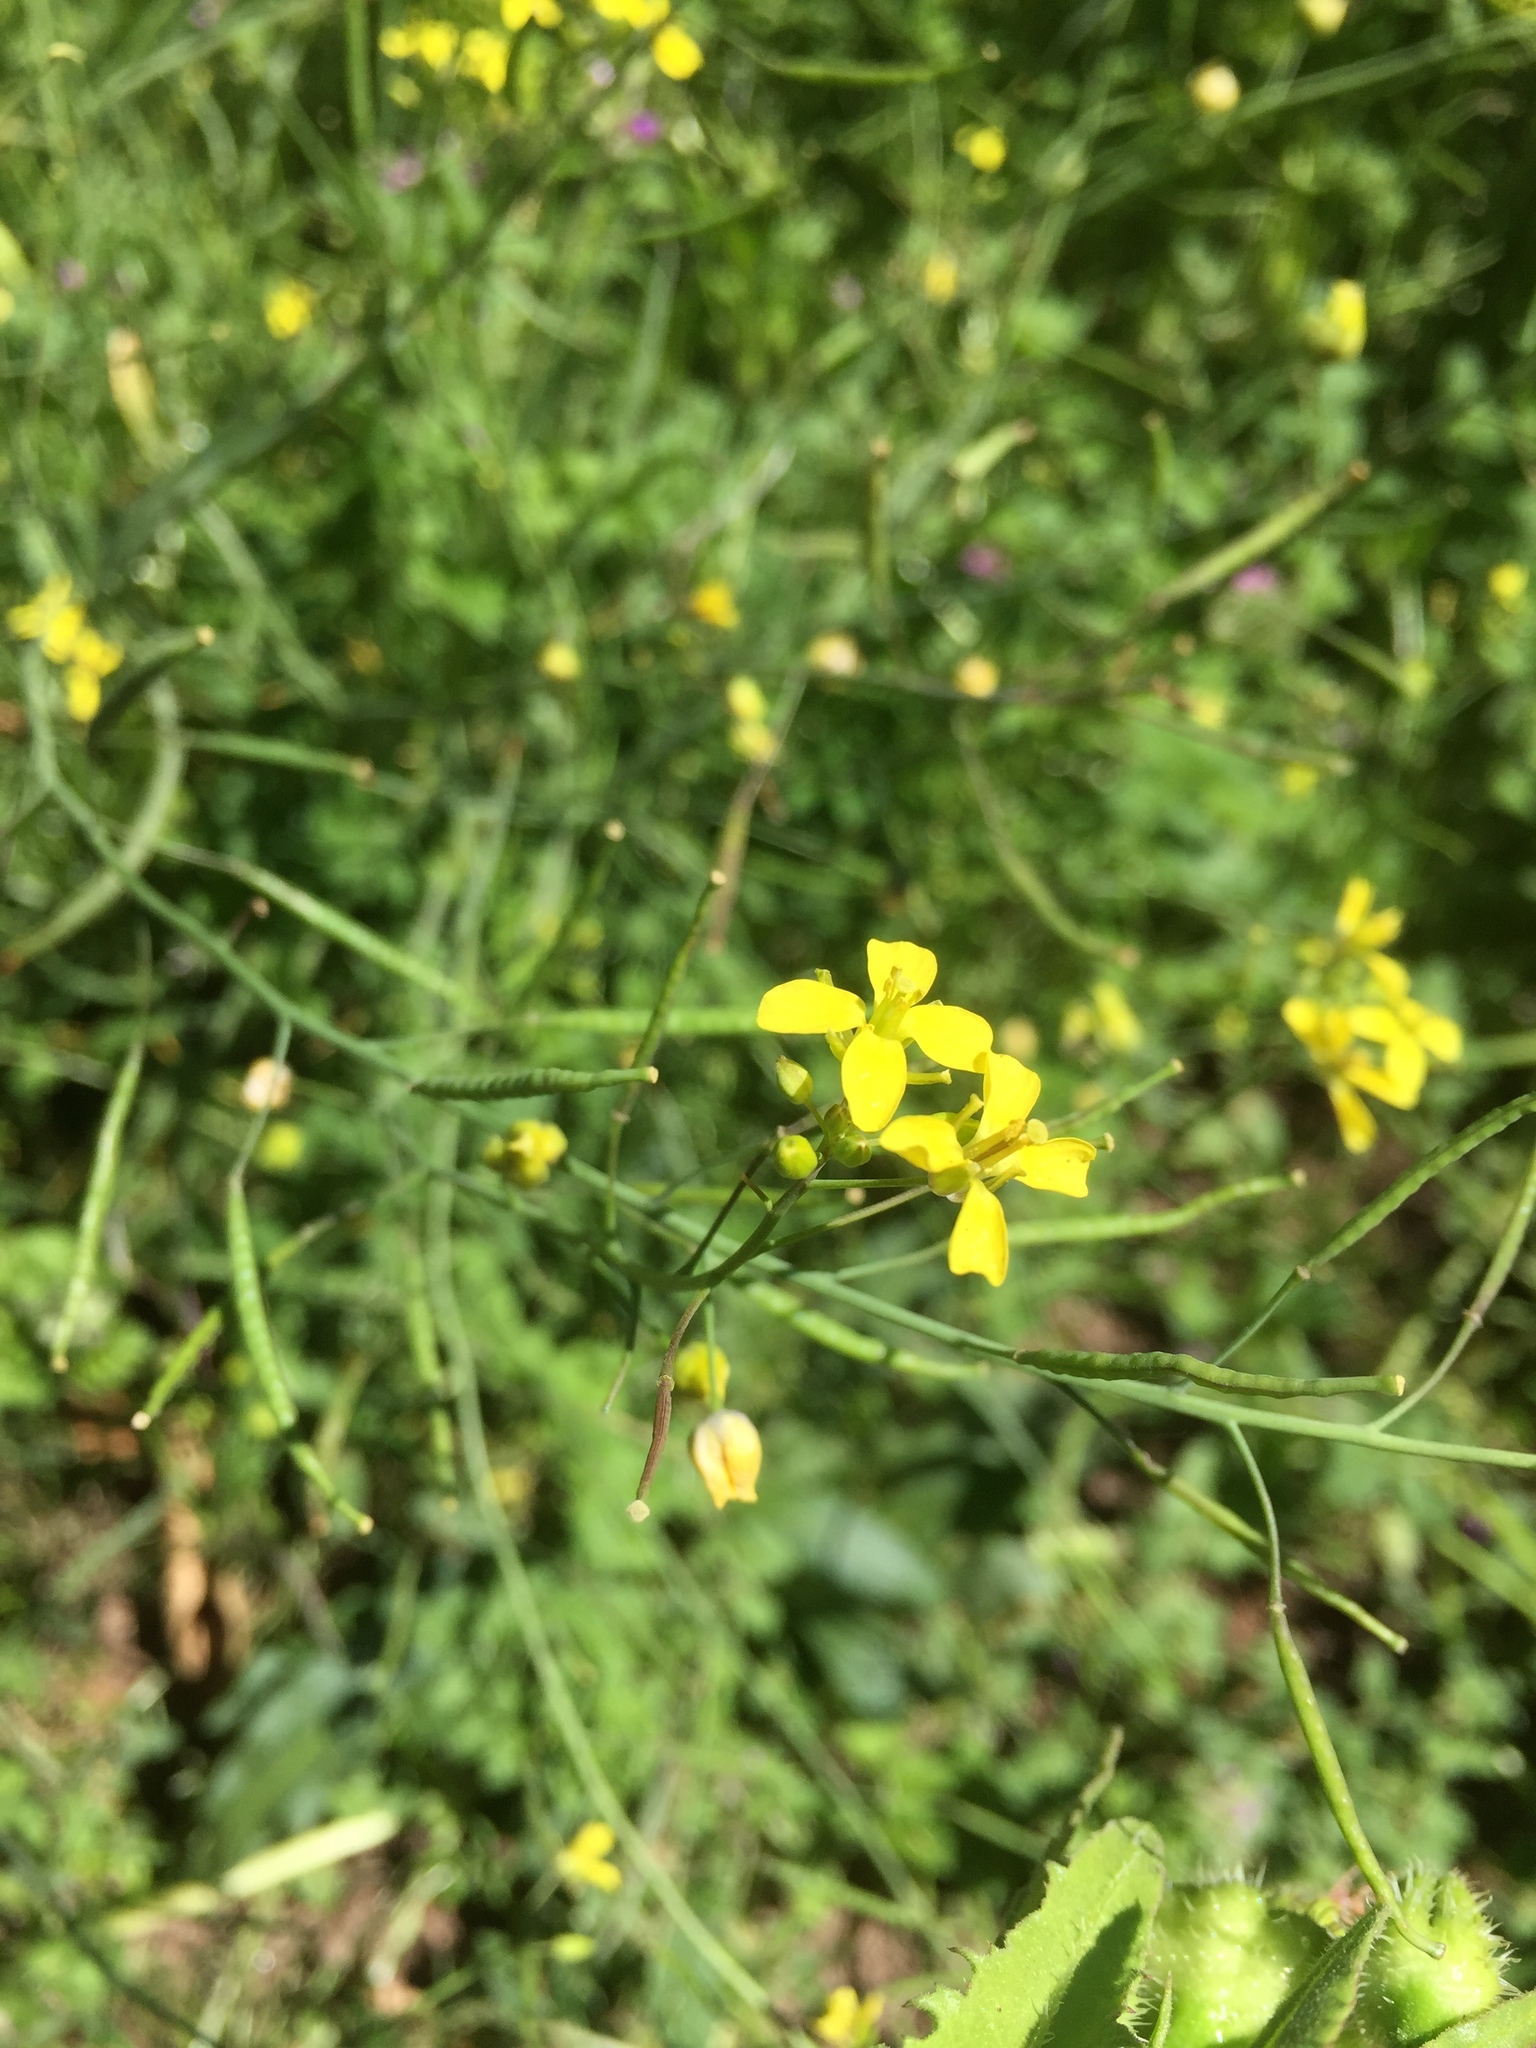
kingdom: Plantae
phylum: Tracheophyta
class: Magnoliopsida
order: Brassicales
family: Brassicaceae
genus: Diplotaxis
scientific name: Diplotaxis catholica
